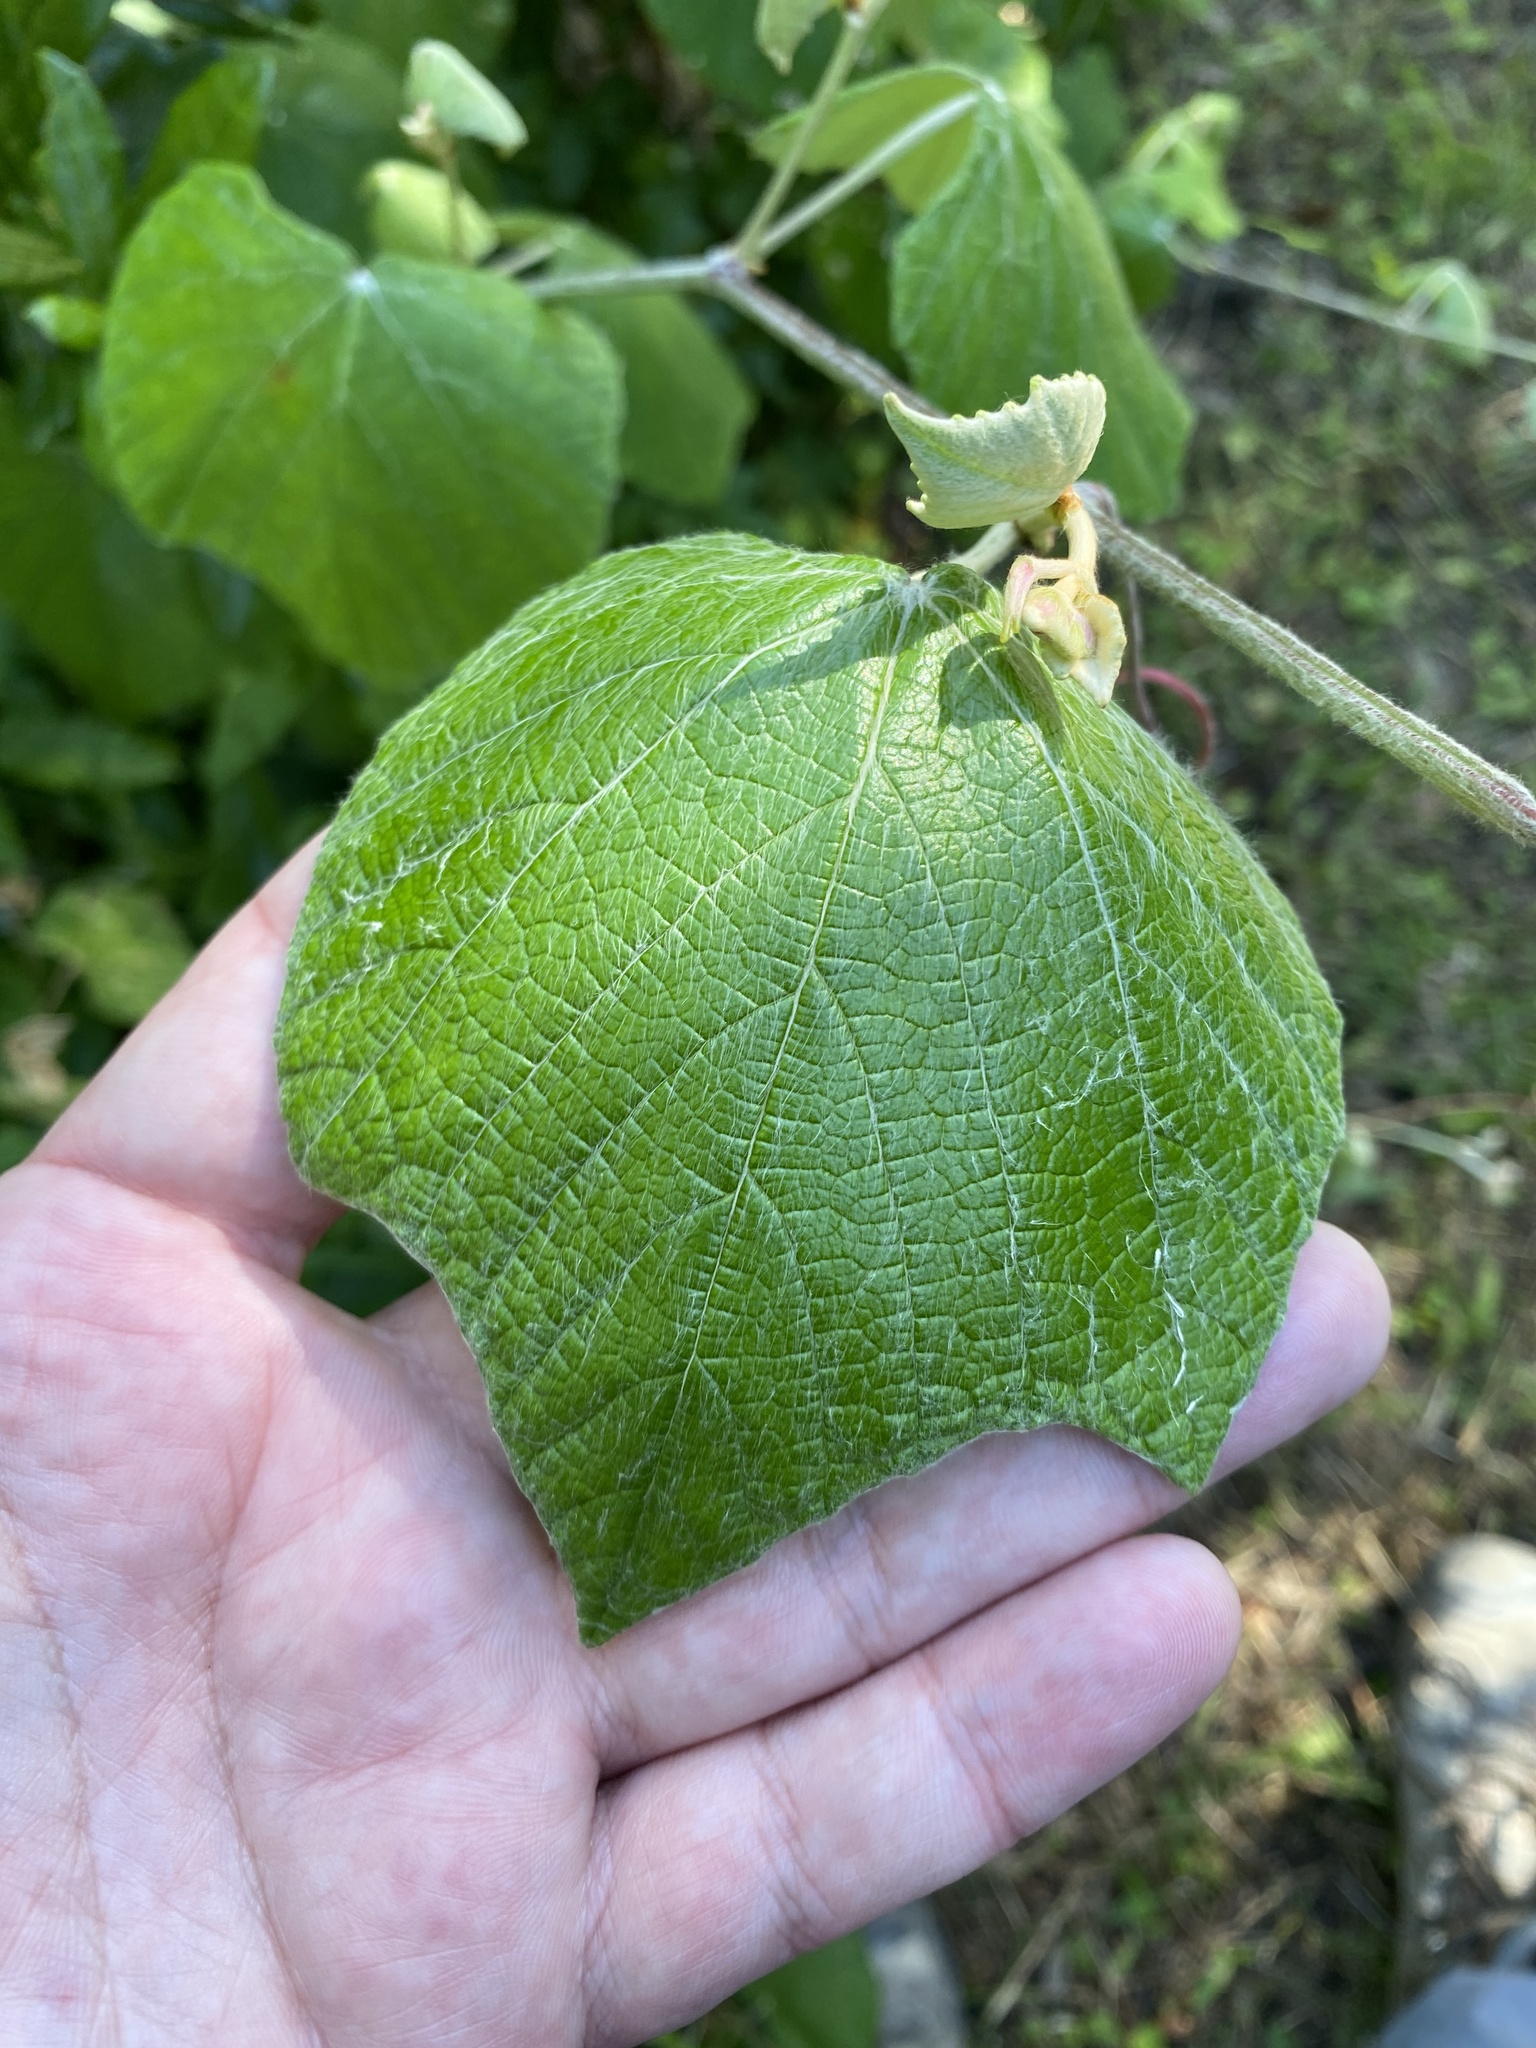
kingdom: Plantae
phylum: Tracheophyta
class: Magnoliopsida
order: Vitales
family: Vitaceae
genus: Vitis
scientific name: Vitis mustangensis
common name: Mustang grape
